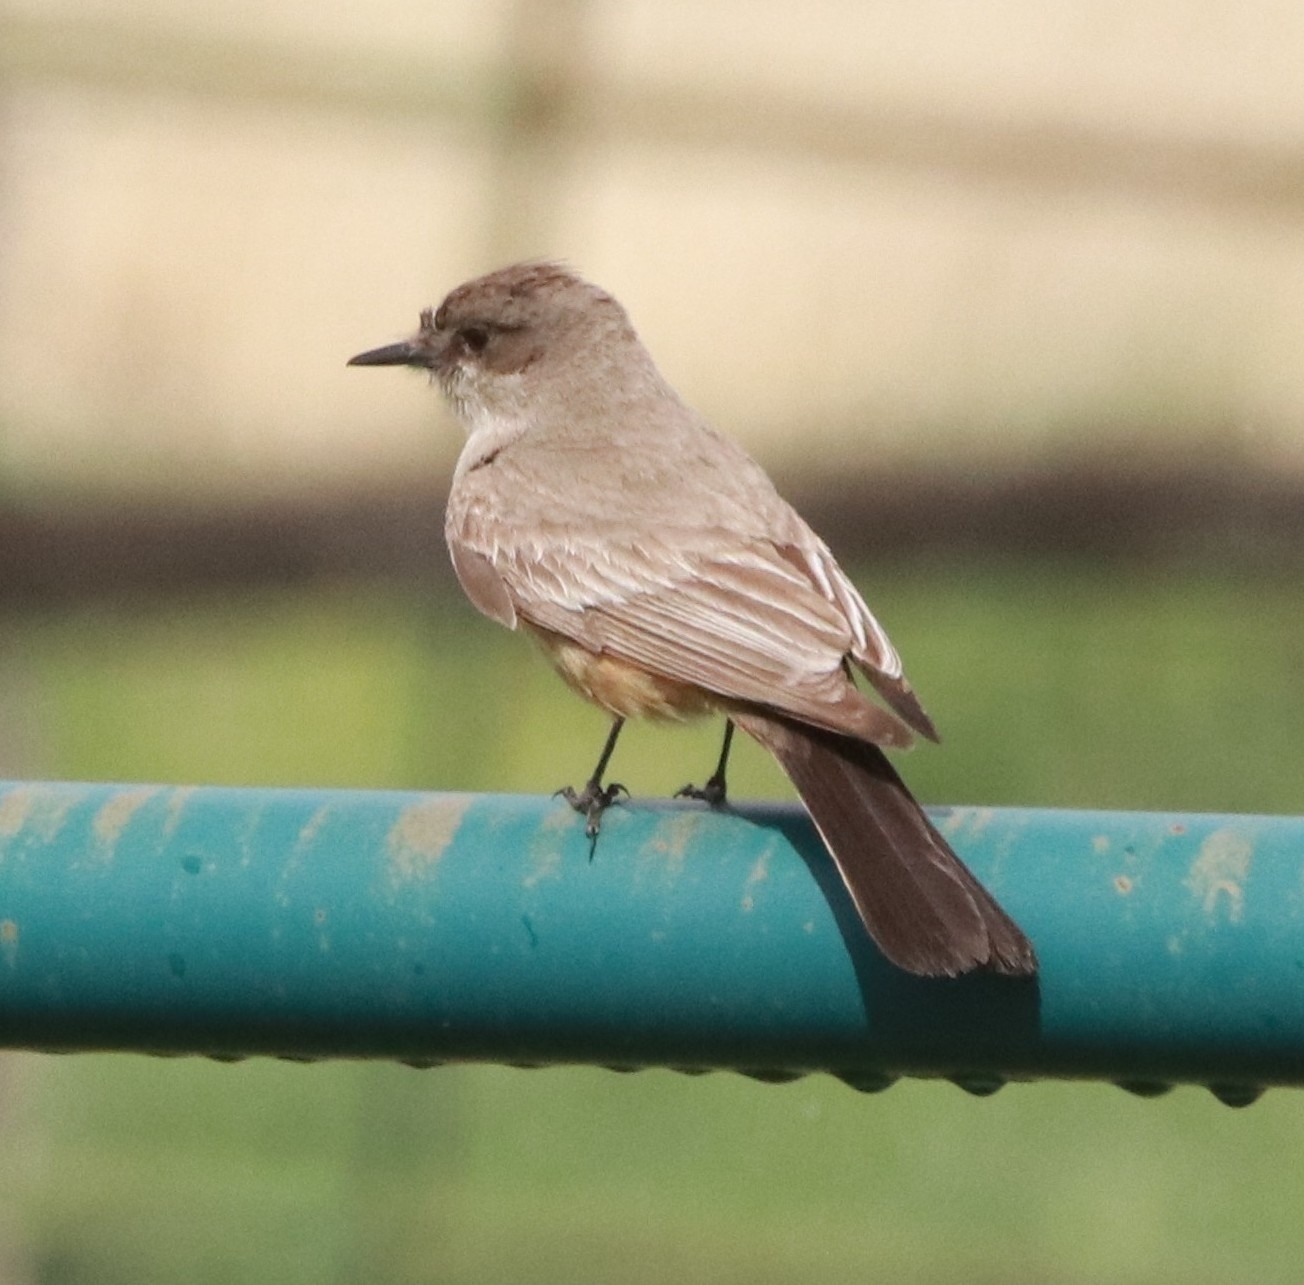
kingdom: Animalia
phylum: Chordata
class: Aves
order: Passeriformes
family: Tyrannidae
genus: Sayornis
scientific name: Sayornis saya
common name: Say's phoebe
